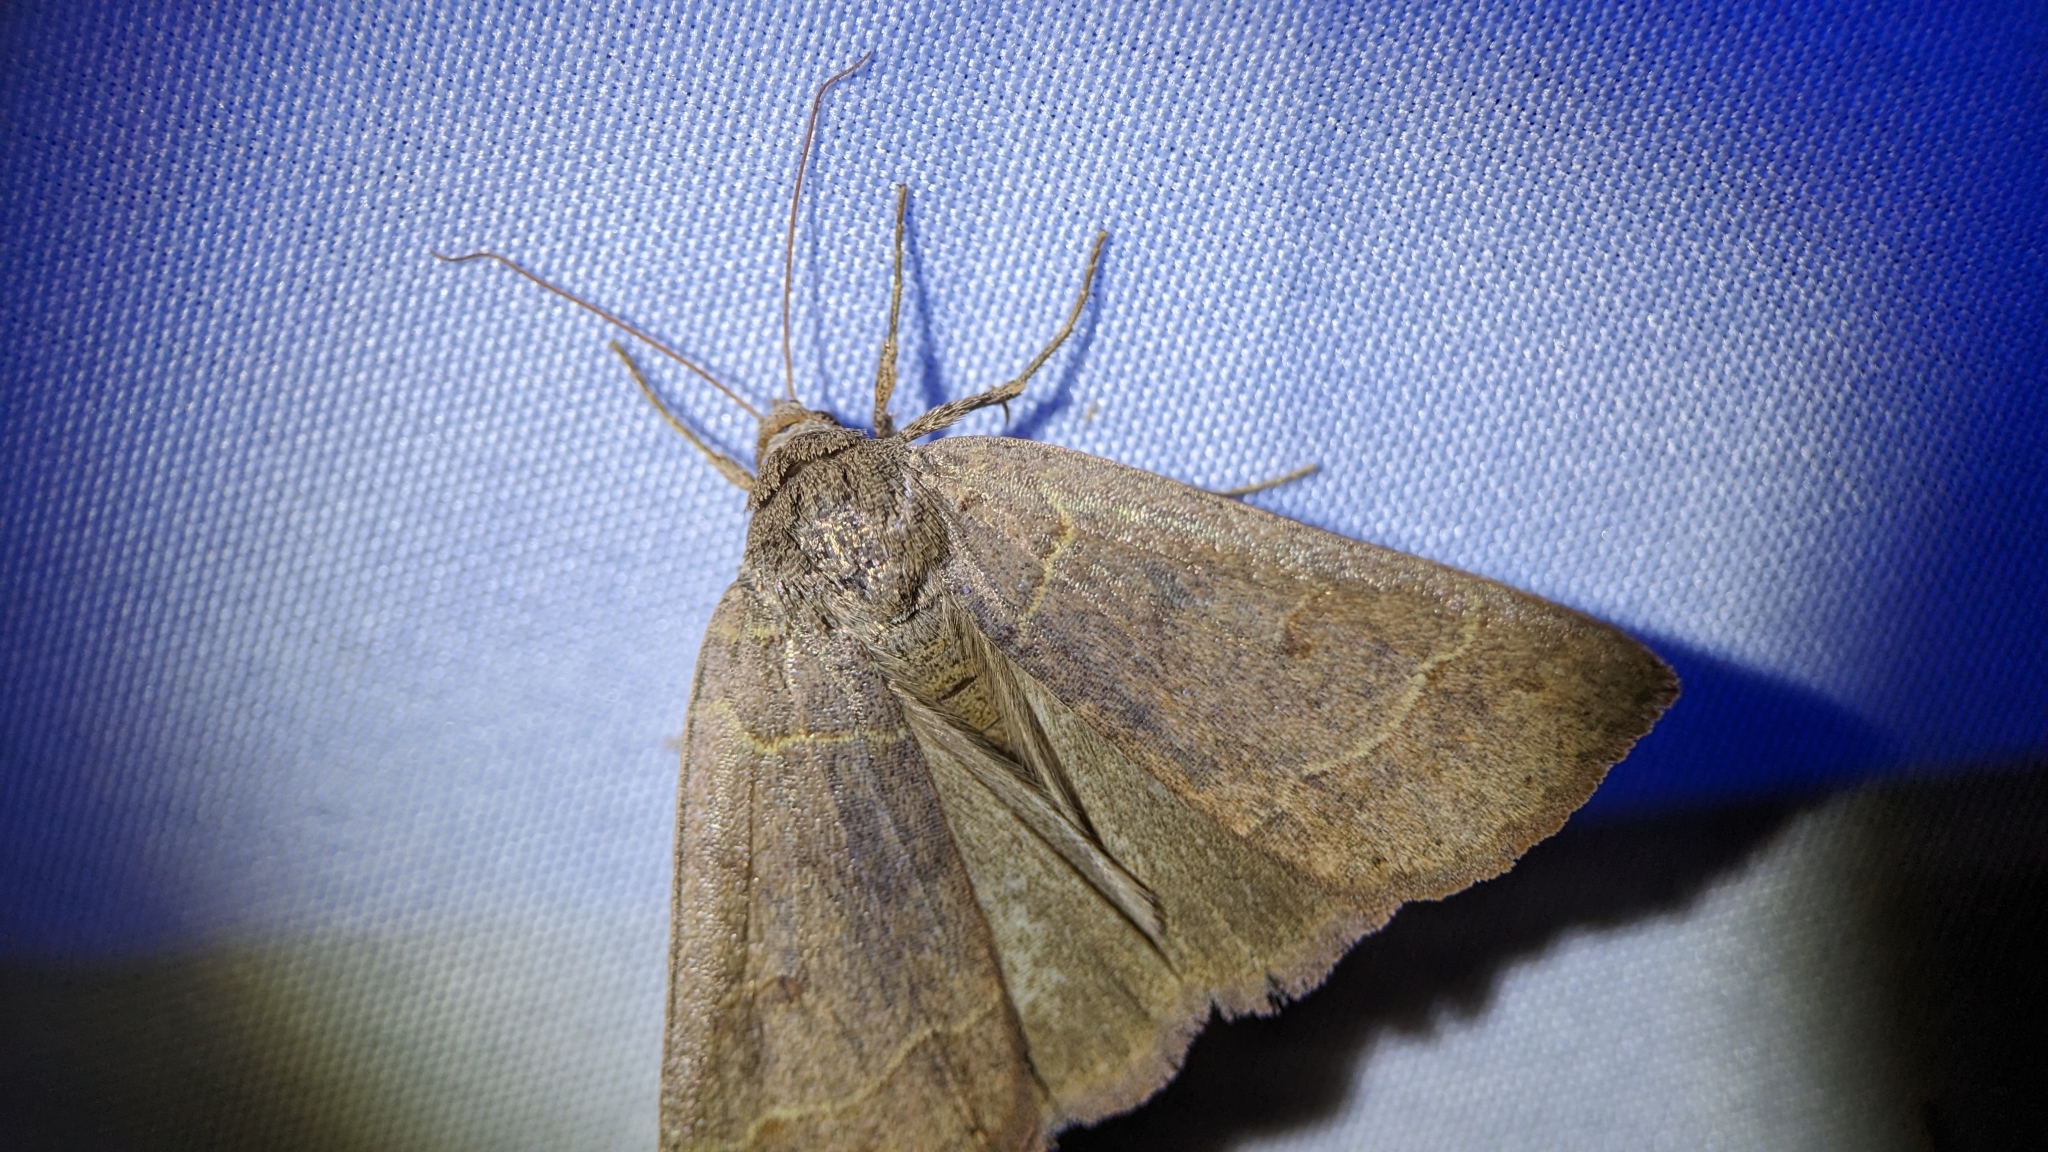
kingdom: Animalia
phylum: Arthropoda
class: Insecta
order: Lepidoptera
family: Erebidae
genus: Phoberia
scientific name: Phoberia atomaris
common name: Common oak moth
